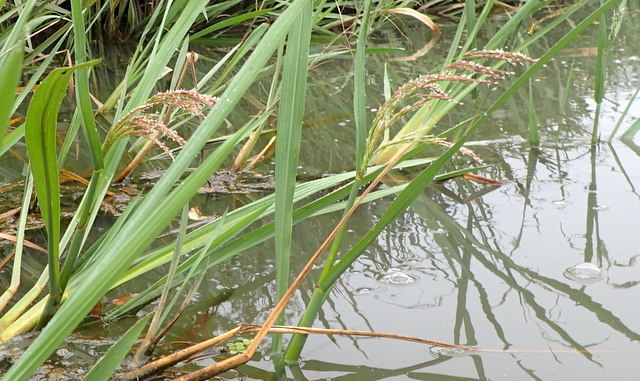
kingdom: Plantae
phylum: Tracheophyta
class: Liliopsida
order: Poales
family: Poaceae
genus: Zizania
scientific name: Zizania aquatica
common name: Annual wildrice
